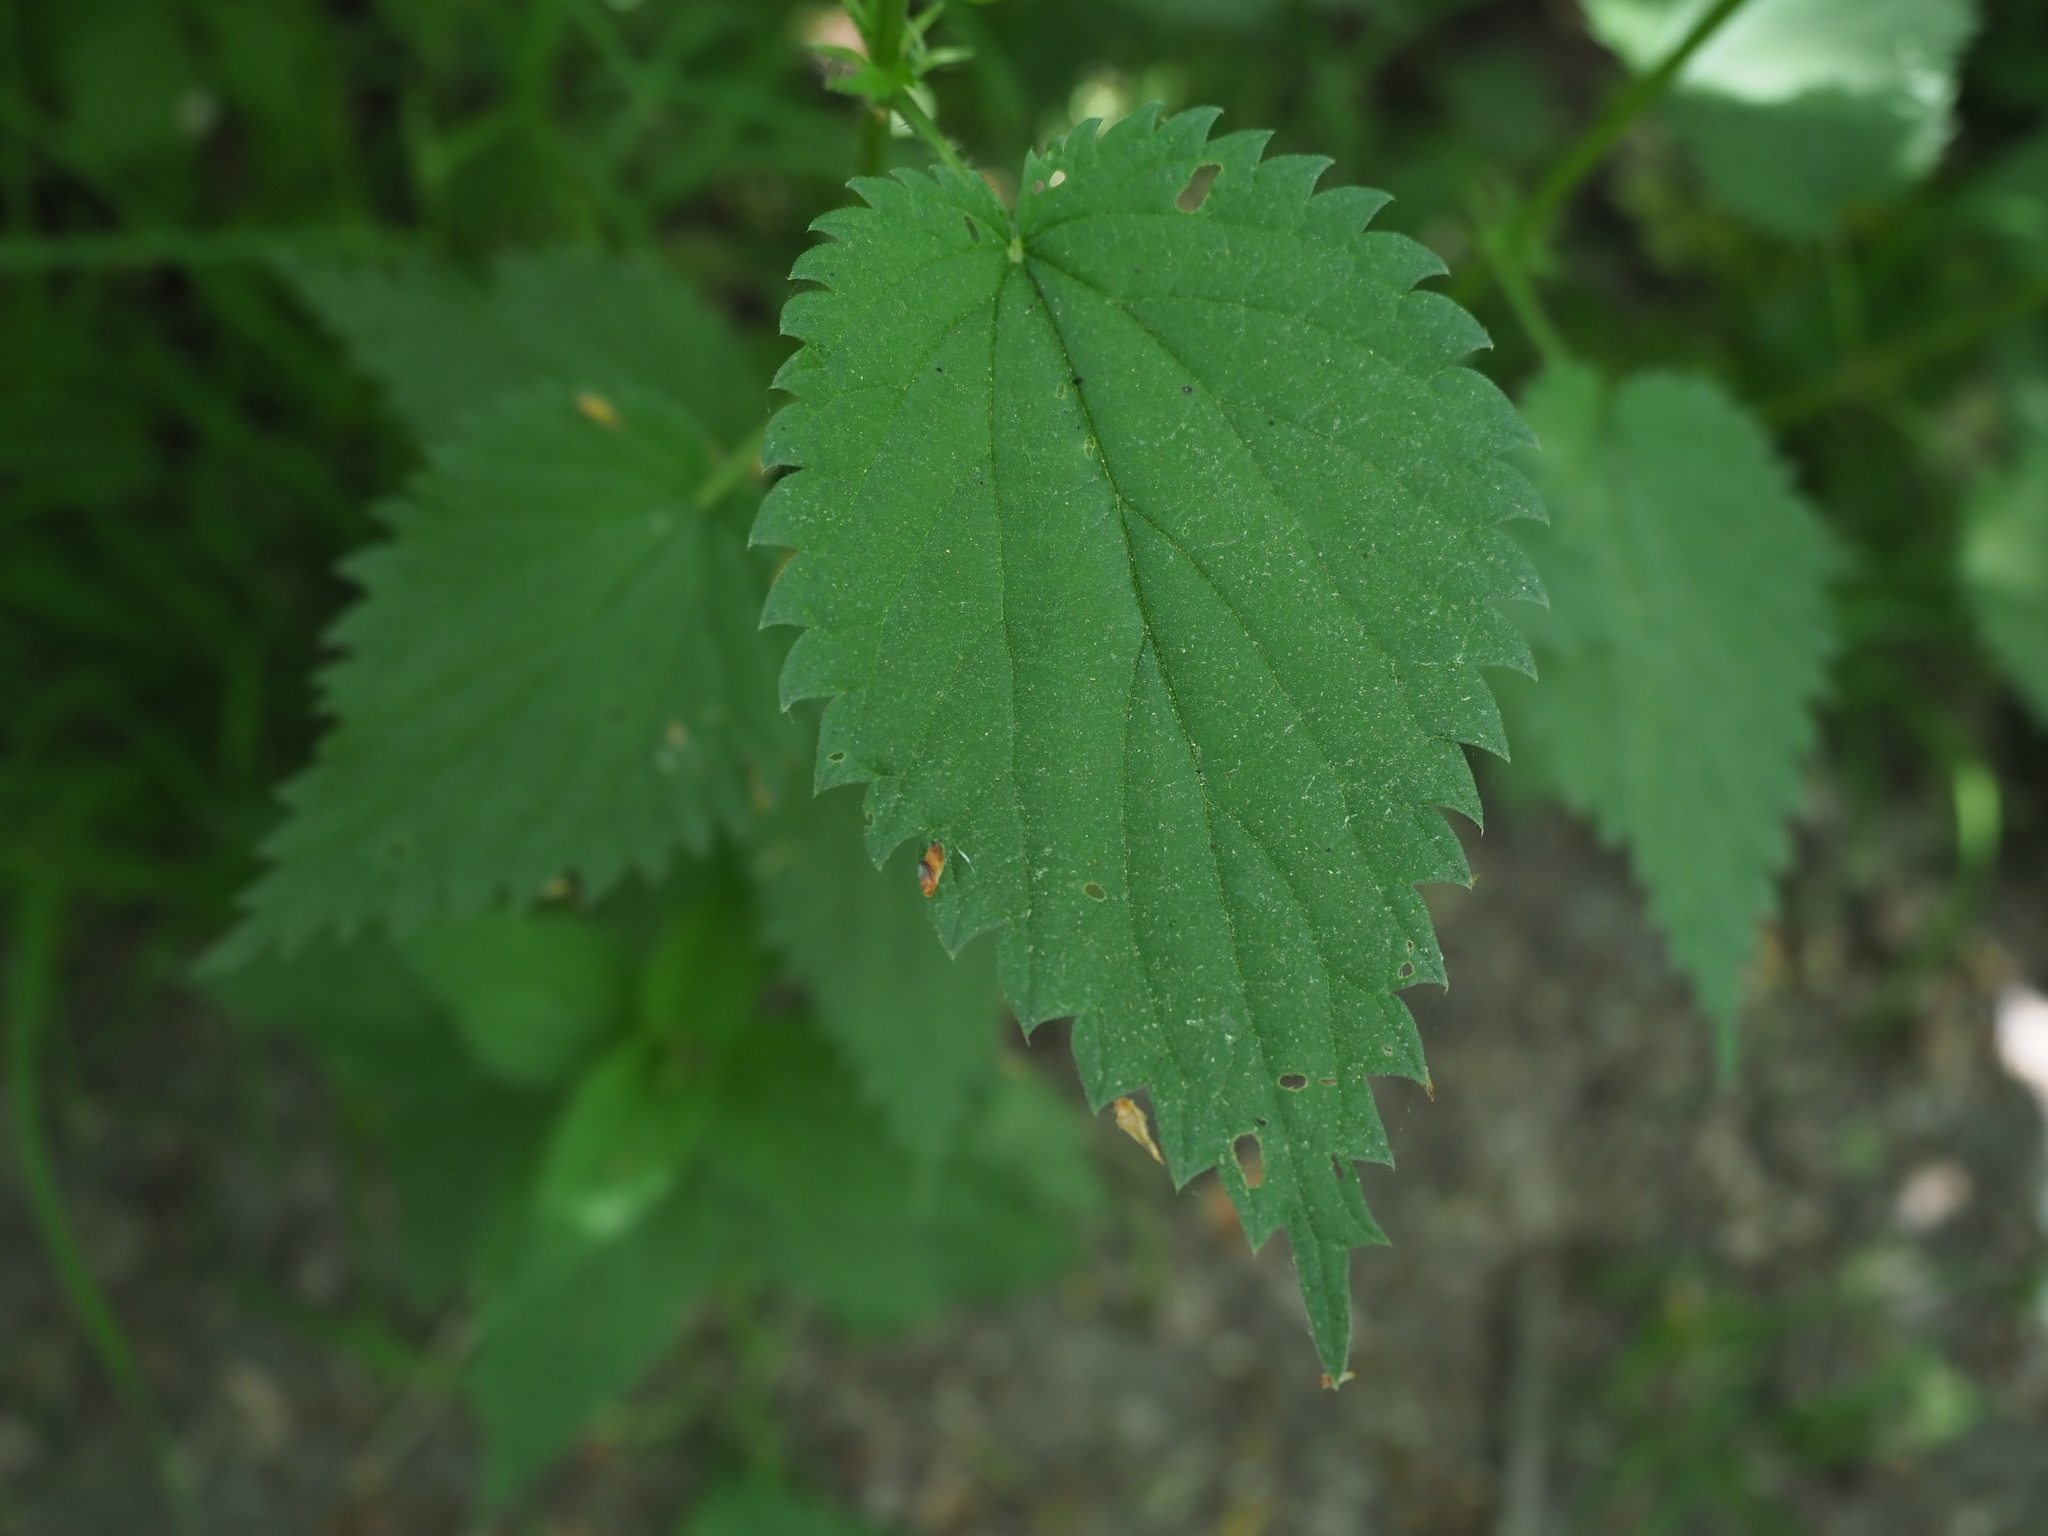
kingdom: Plantae
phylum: Tracheophyta
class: Magnoliopsida
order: Rosales
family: Urticaceae
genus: Urtica
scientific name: Urtica dioica
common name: Common nettle
